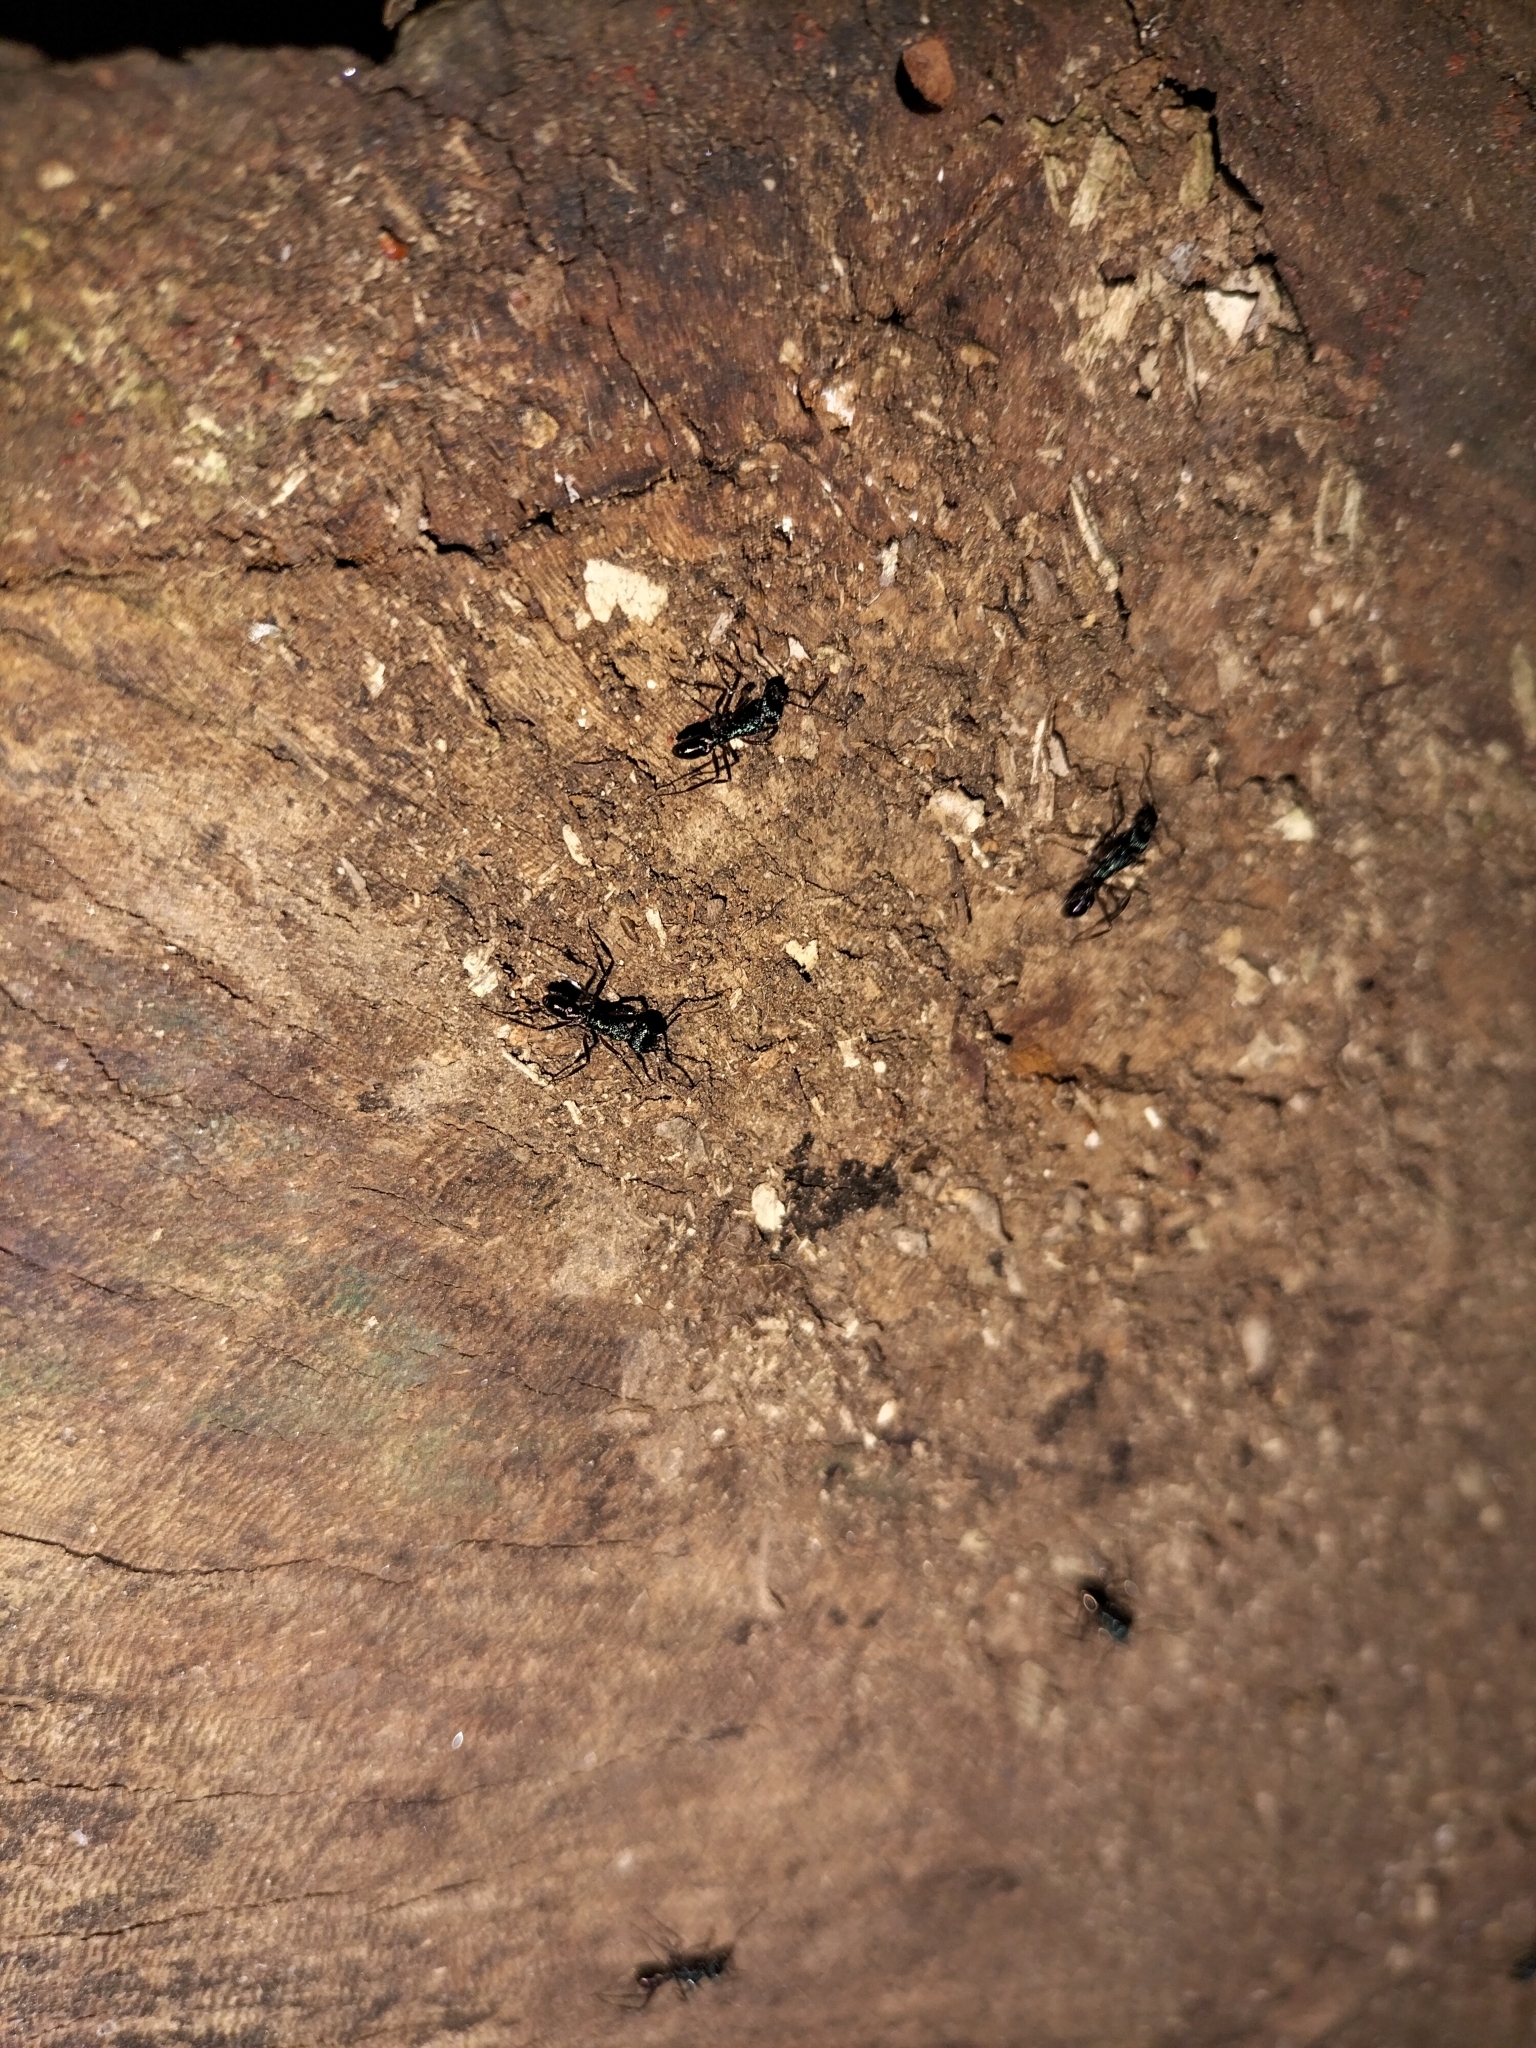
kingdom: Animalia
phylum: Arthropoda
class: Insecta
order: Hymenoptera
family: Formicidae
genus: Rhytidoponera
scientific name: Rhytidoponera purpurea
